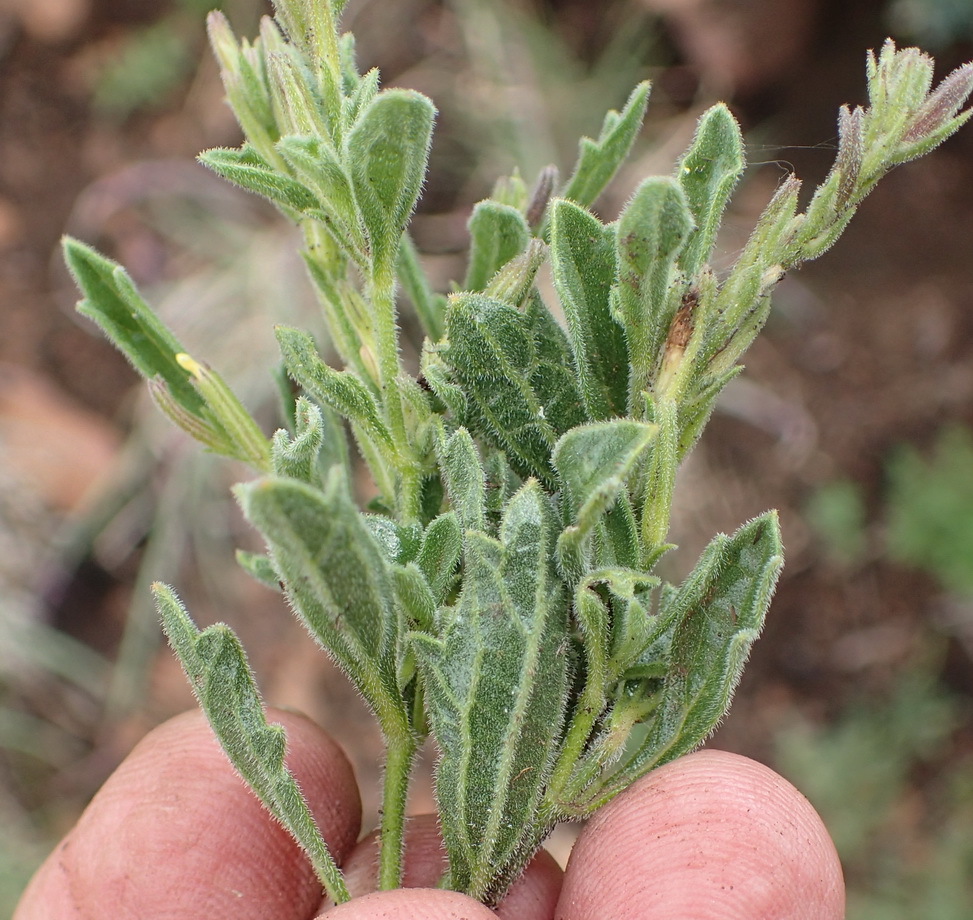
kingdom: Plantae
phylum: Tracheophyta
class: Magnoliopsida
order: Lamiales
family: Acanthaceae
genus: Dyschoriste
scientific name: Dyschoriste radicans
